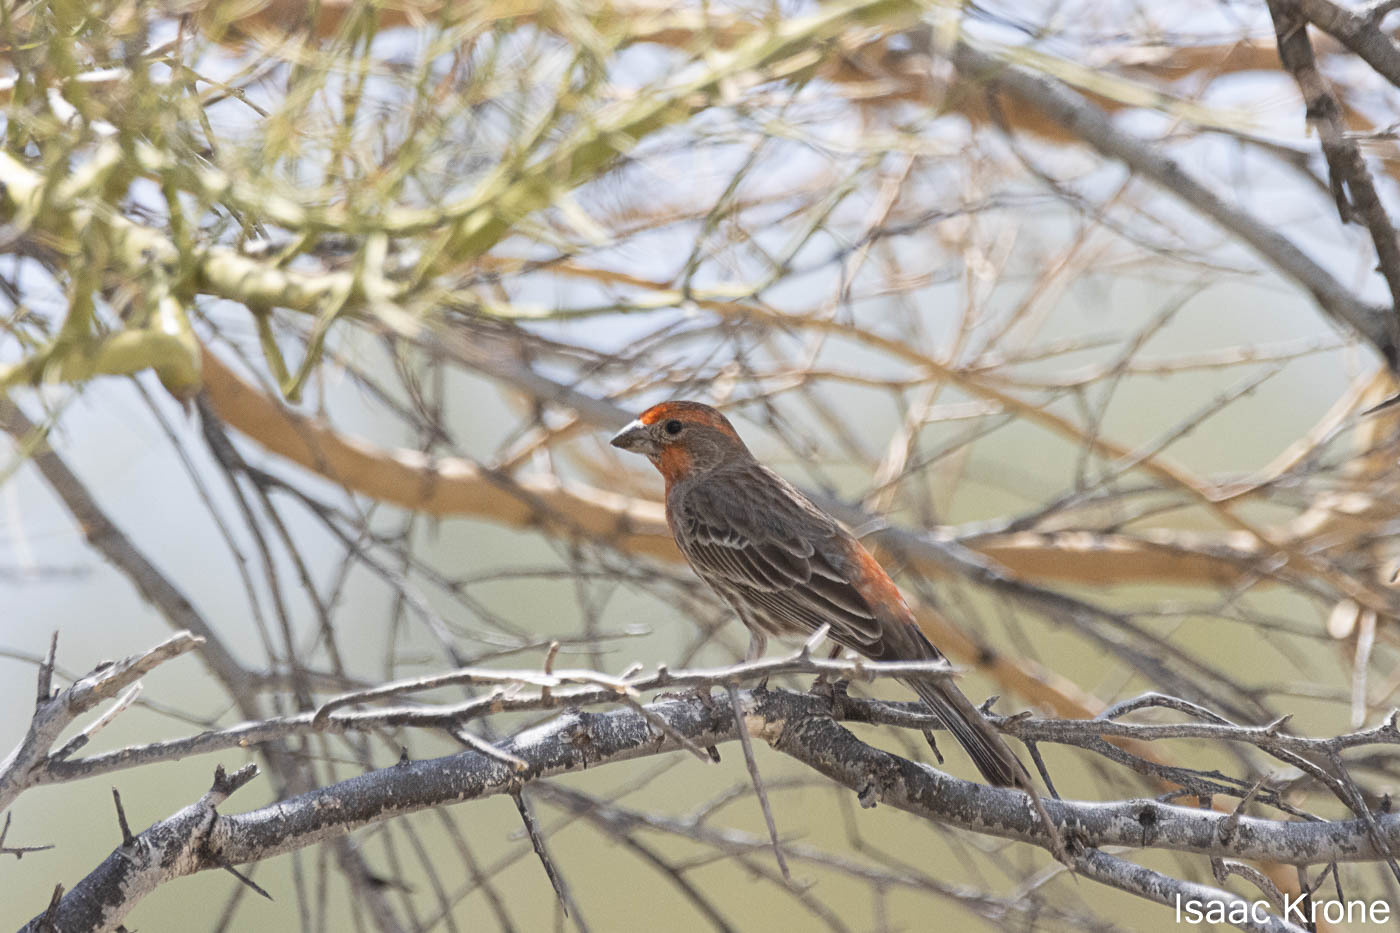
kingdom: Animalia
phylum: Chordata
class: Aves
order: Passeriformes
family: Fringillidae
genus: Haemorhous
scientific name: Haemorhous mexicanus
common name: House finch
